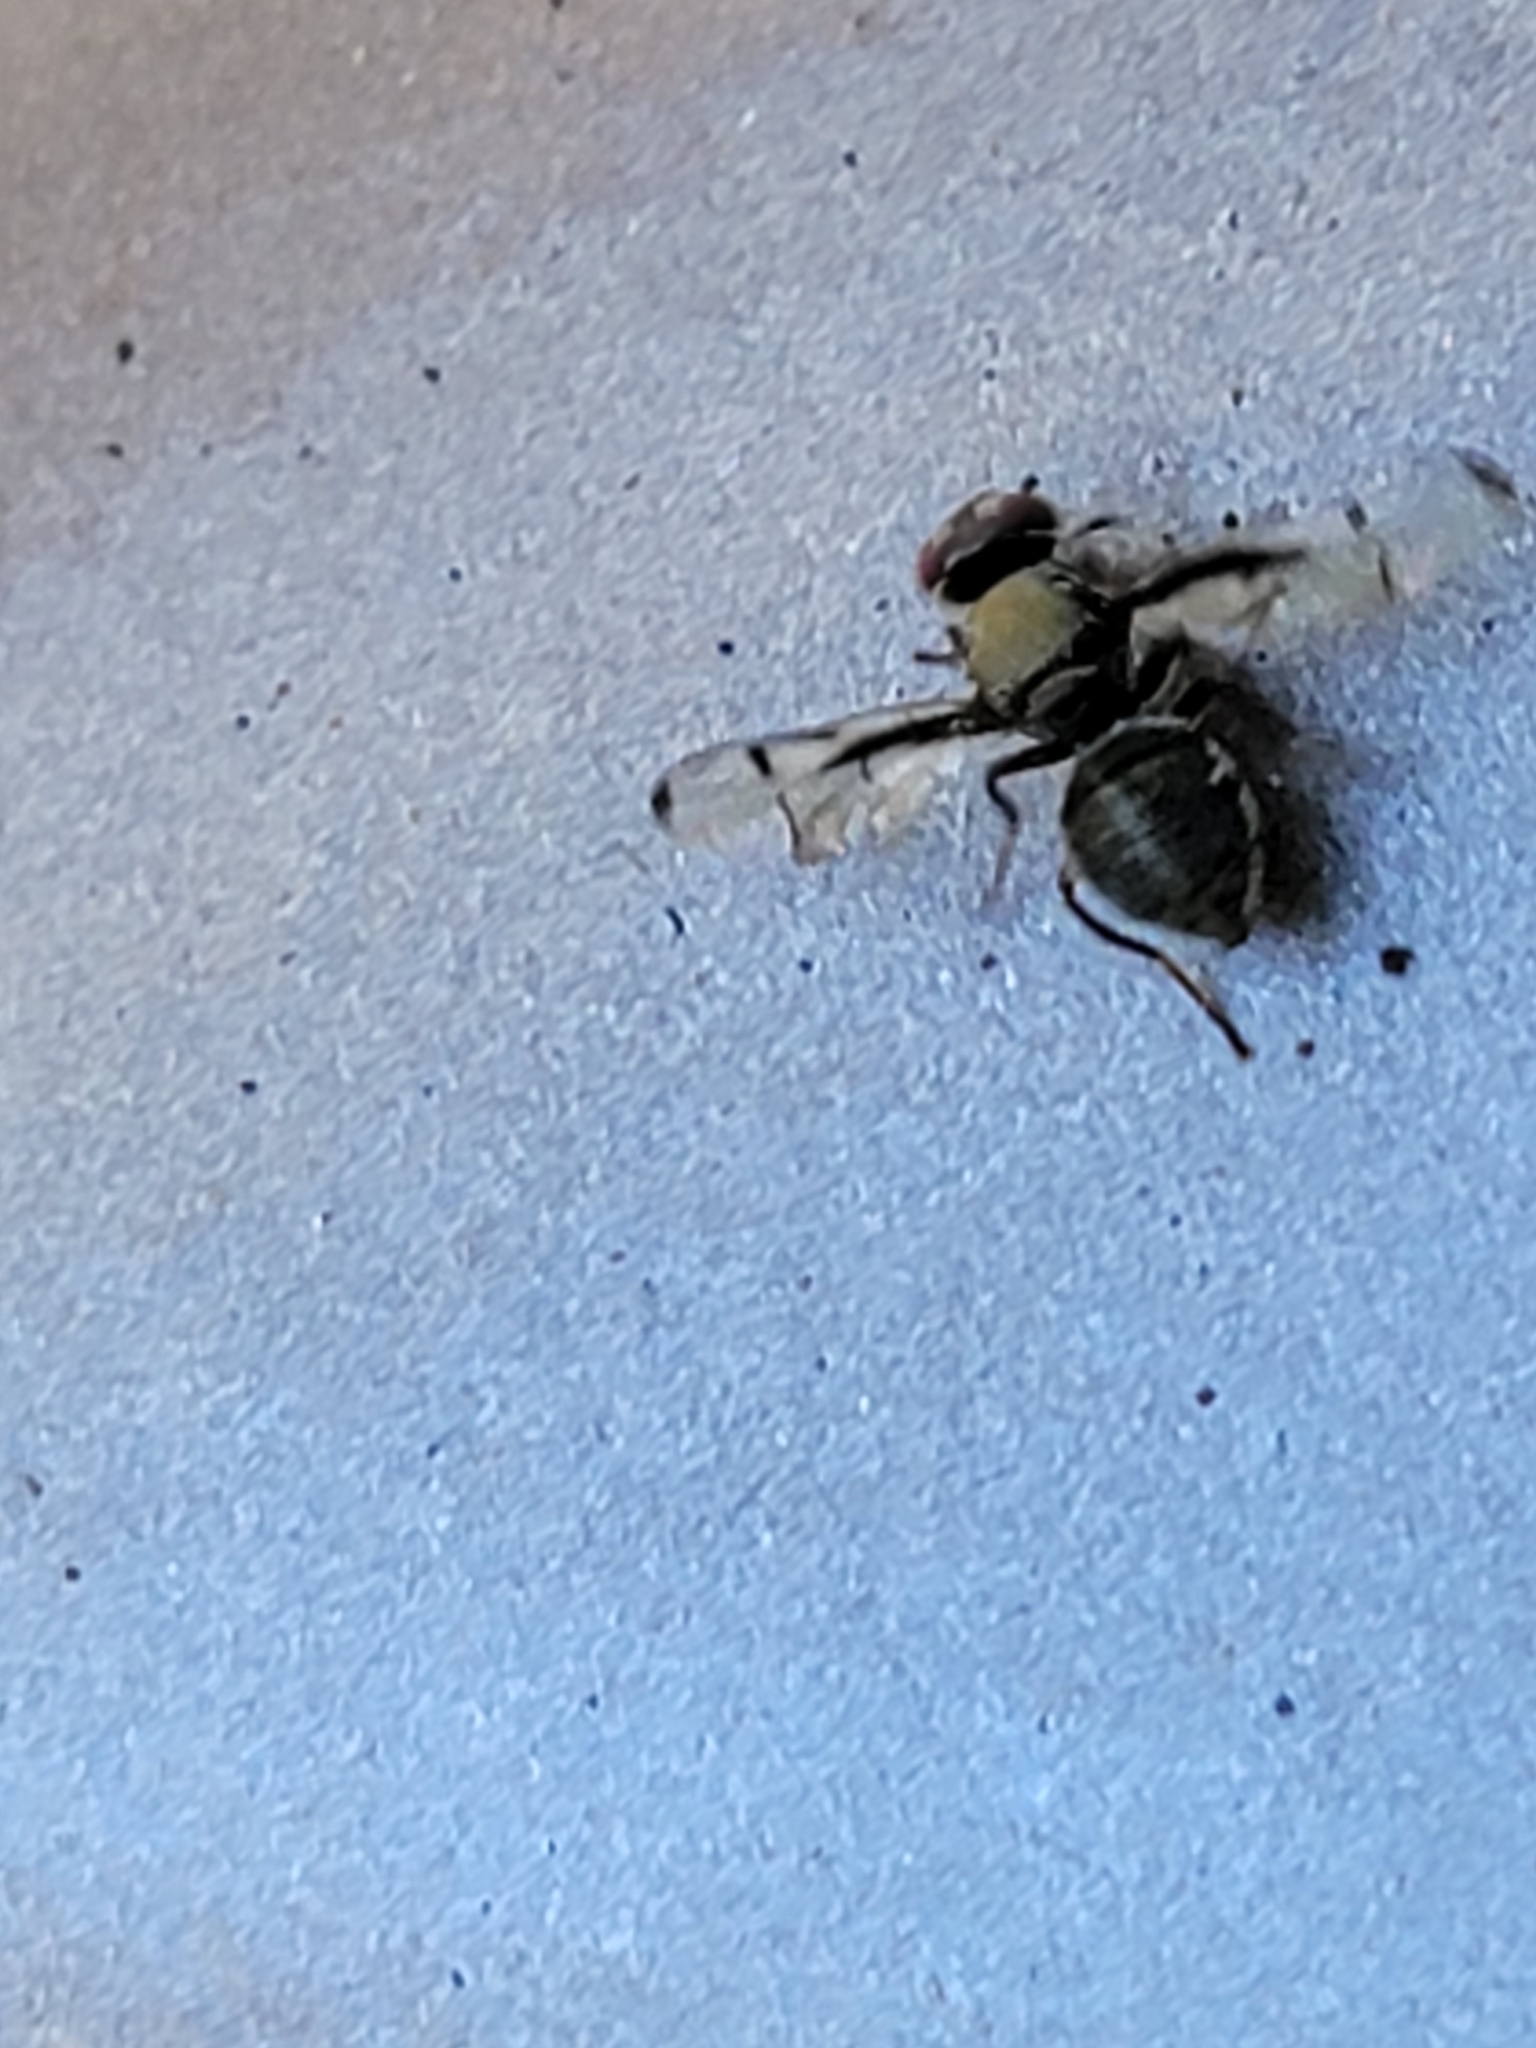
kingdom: Animalia
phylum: Arthropoda
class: Insecta
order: Diptera
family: Platystomatidae
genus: Pogonortalis
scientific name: Pogonortalis doclea
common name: Boatman fly
